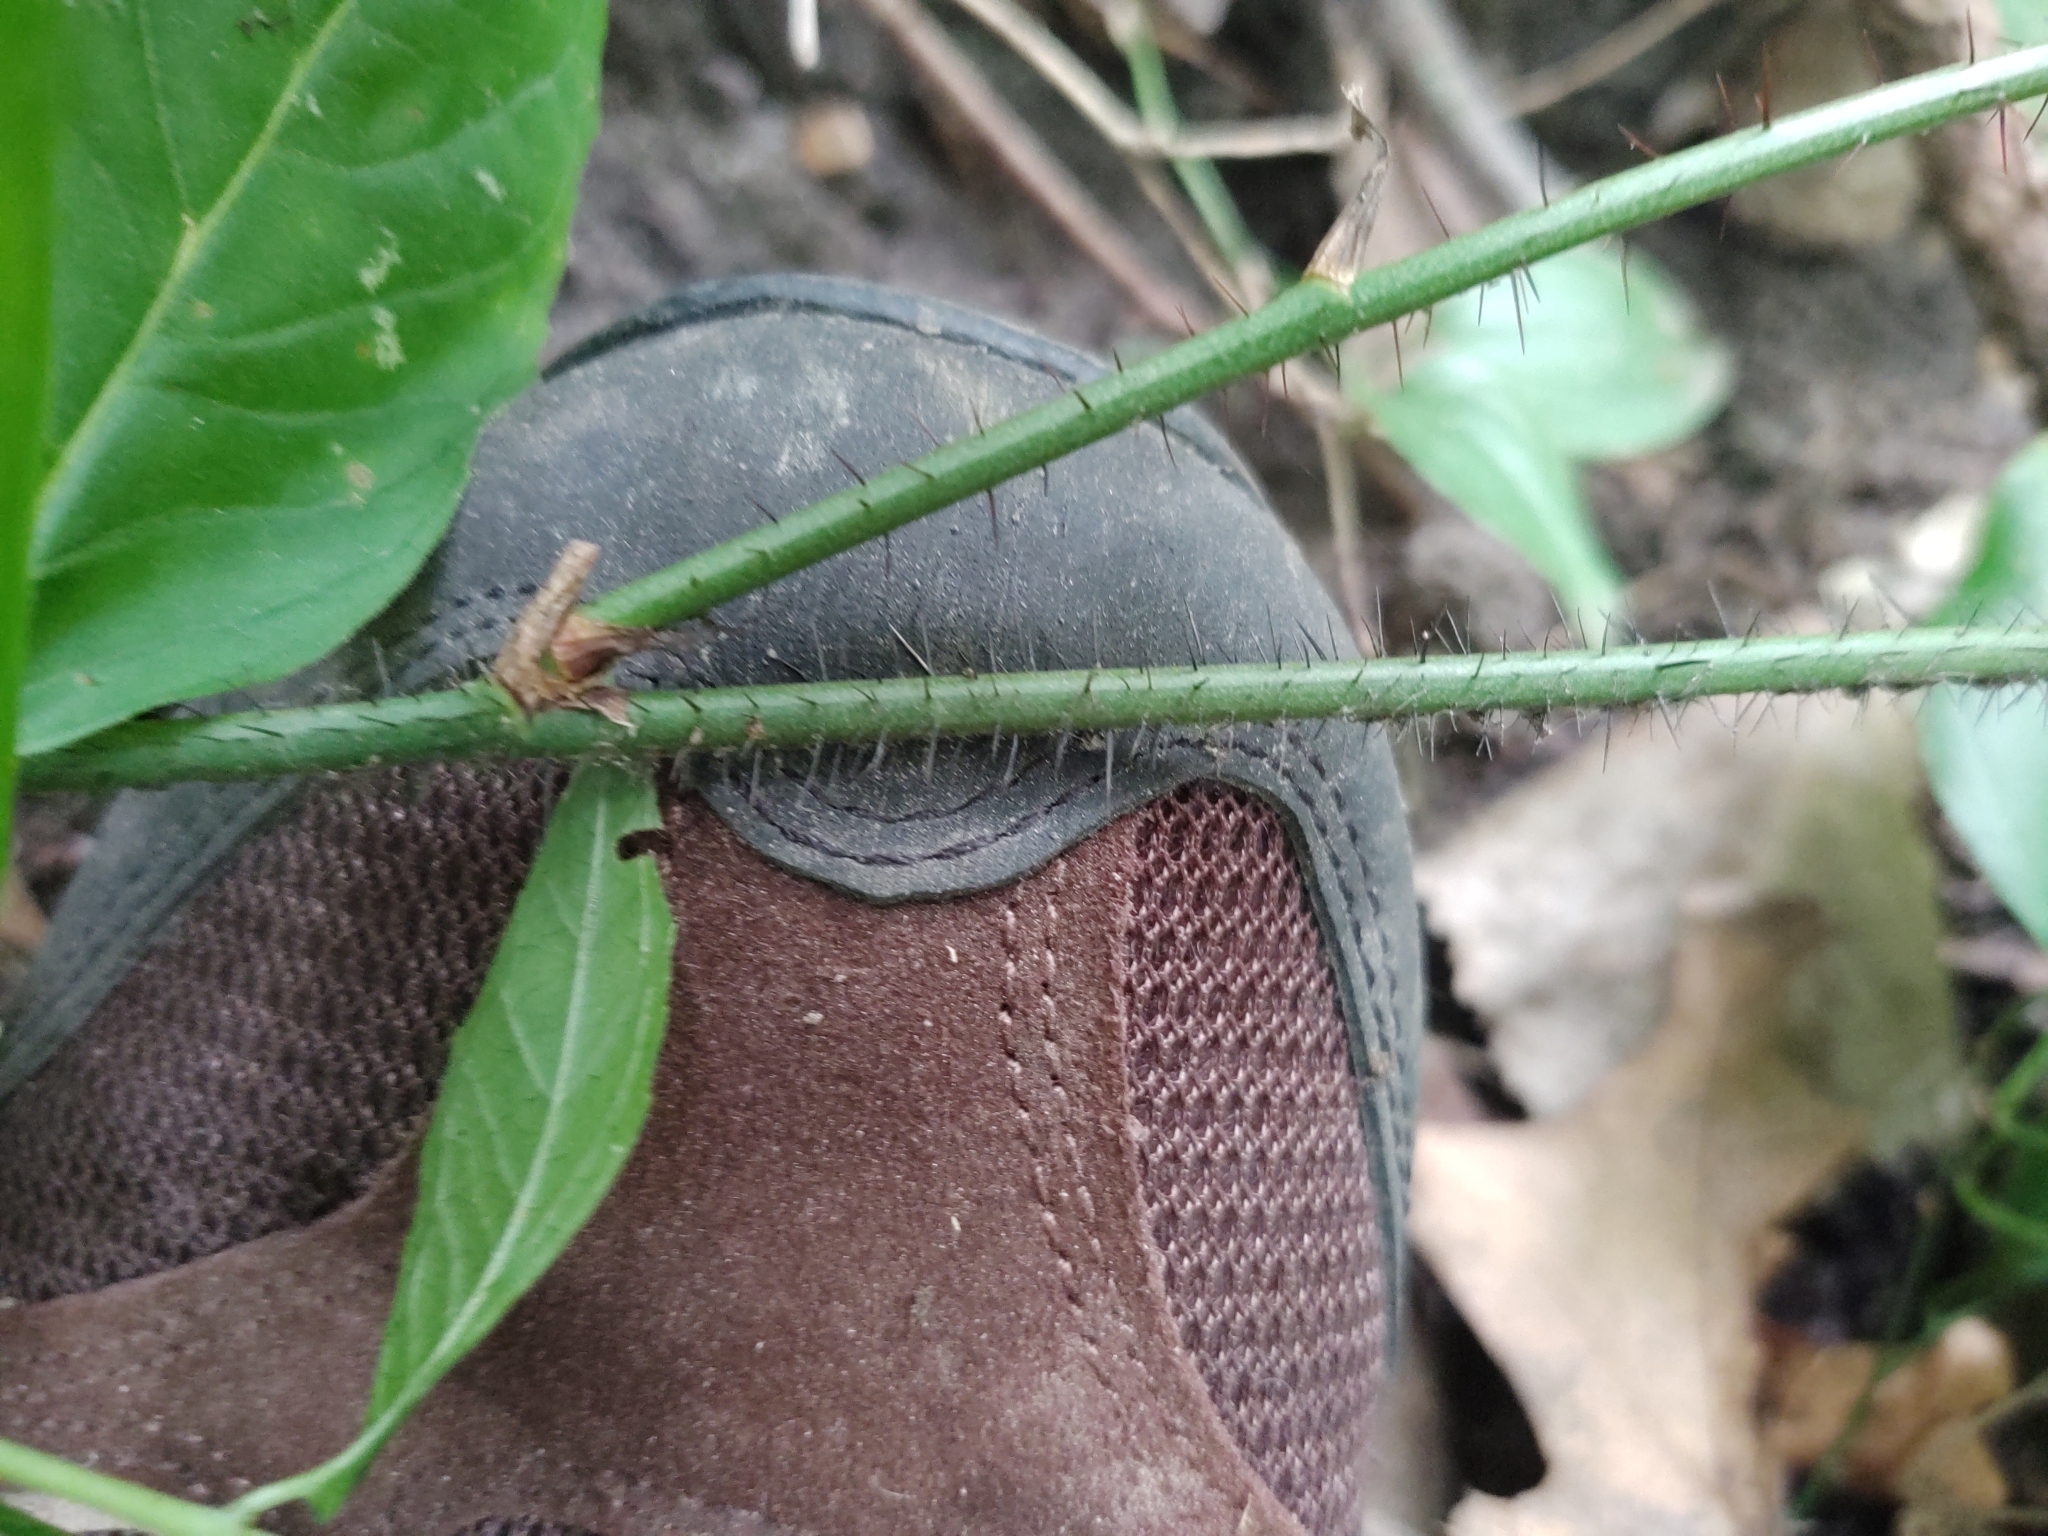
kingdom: Plantae
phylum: Tracheophyta
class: Liliopsida
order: Liliales
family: Smilacaceae
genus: Smilax
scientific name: Smilax tamnoides
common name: Hellfetter
